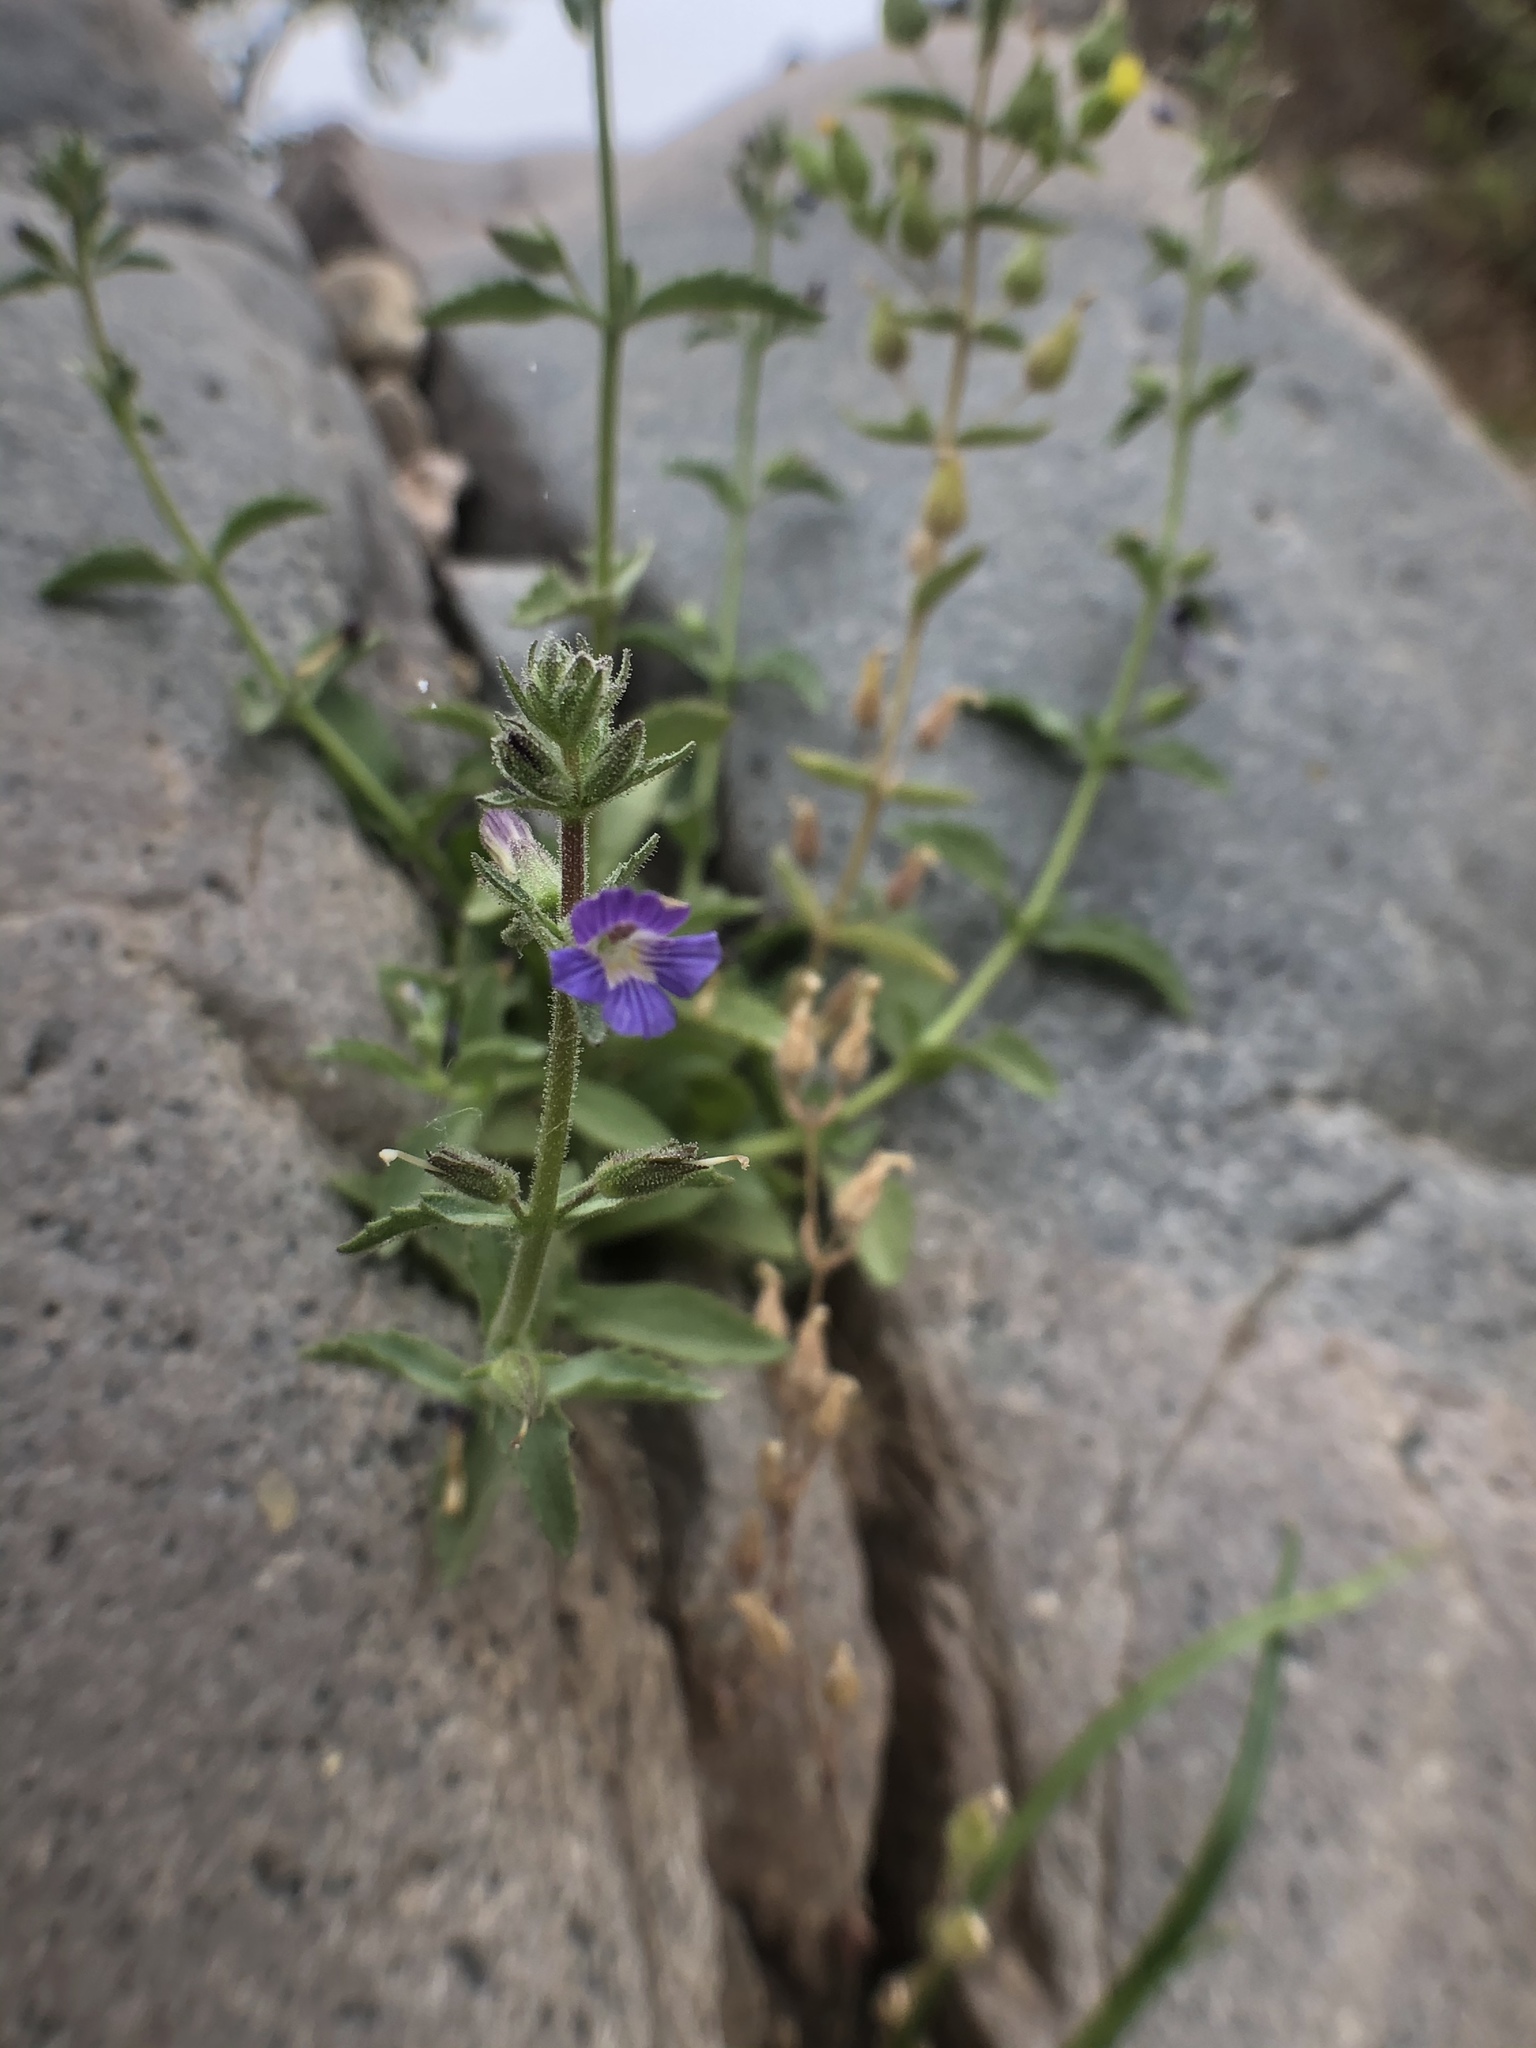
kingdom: Plantae
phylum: Tracheophyta
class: Magnoliopsida
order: Lamiales
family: Plantaginaceae
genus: Stemodia
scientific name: Stemodia durantifolia
